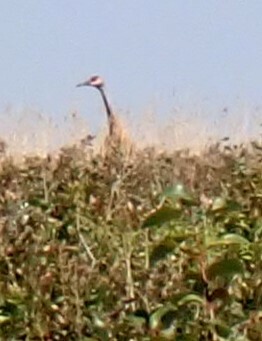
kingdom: Animalia
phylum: Chordata
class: Aves
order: Gruiformes
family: Gruidae
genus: Grus
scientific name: Grus canadensis
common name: Sandhill crane
